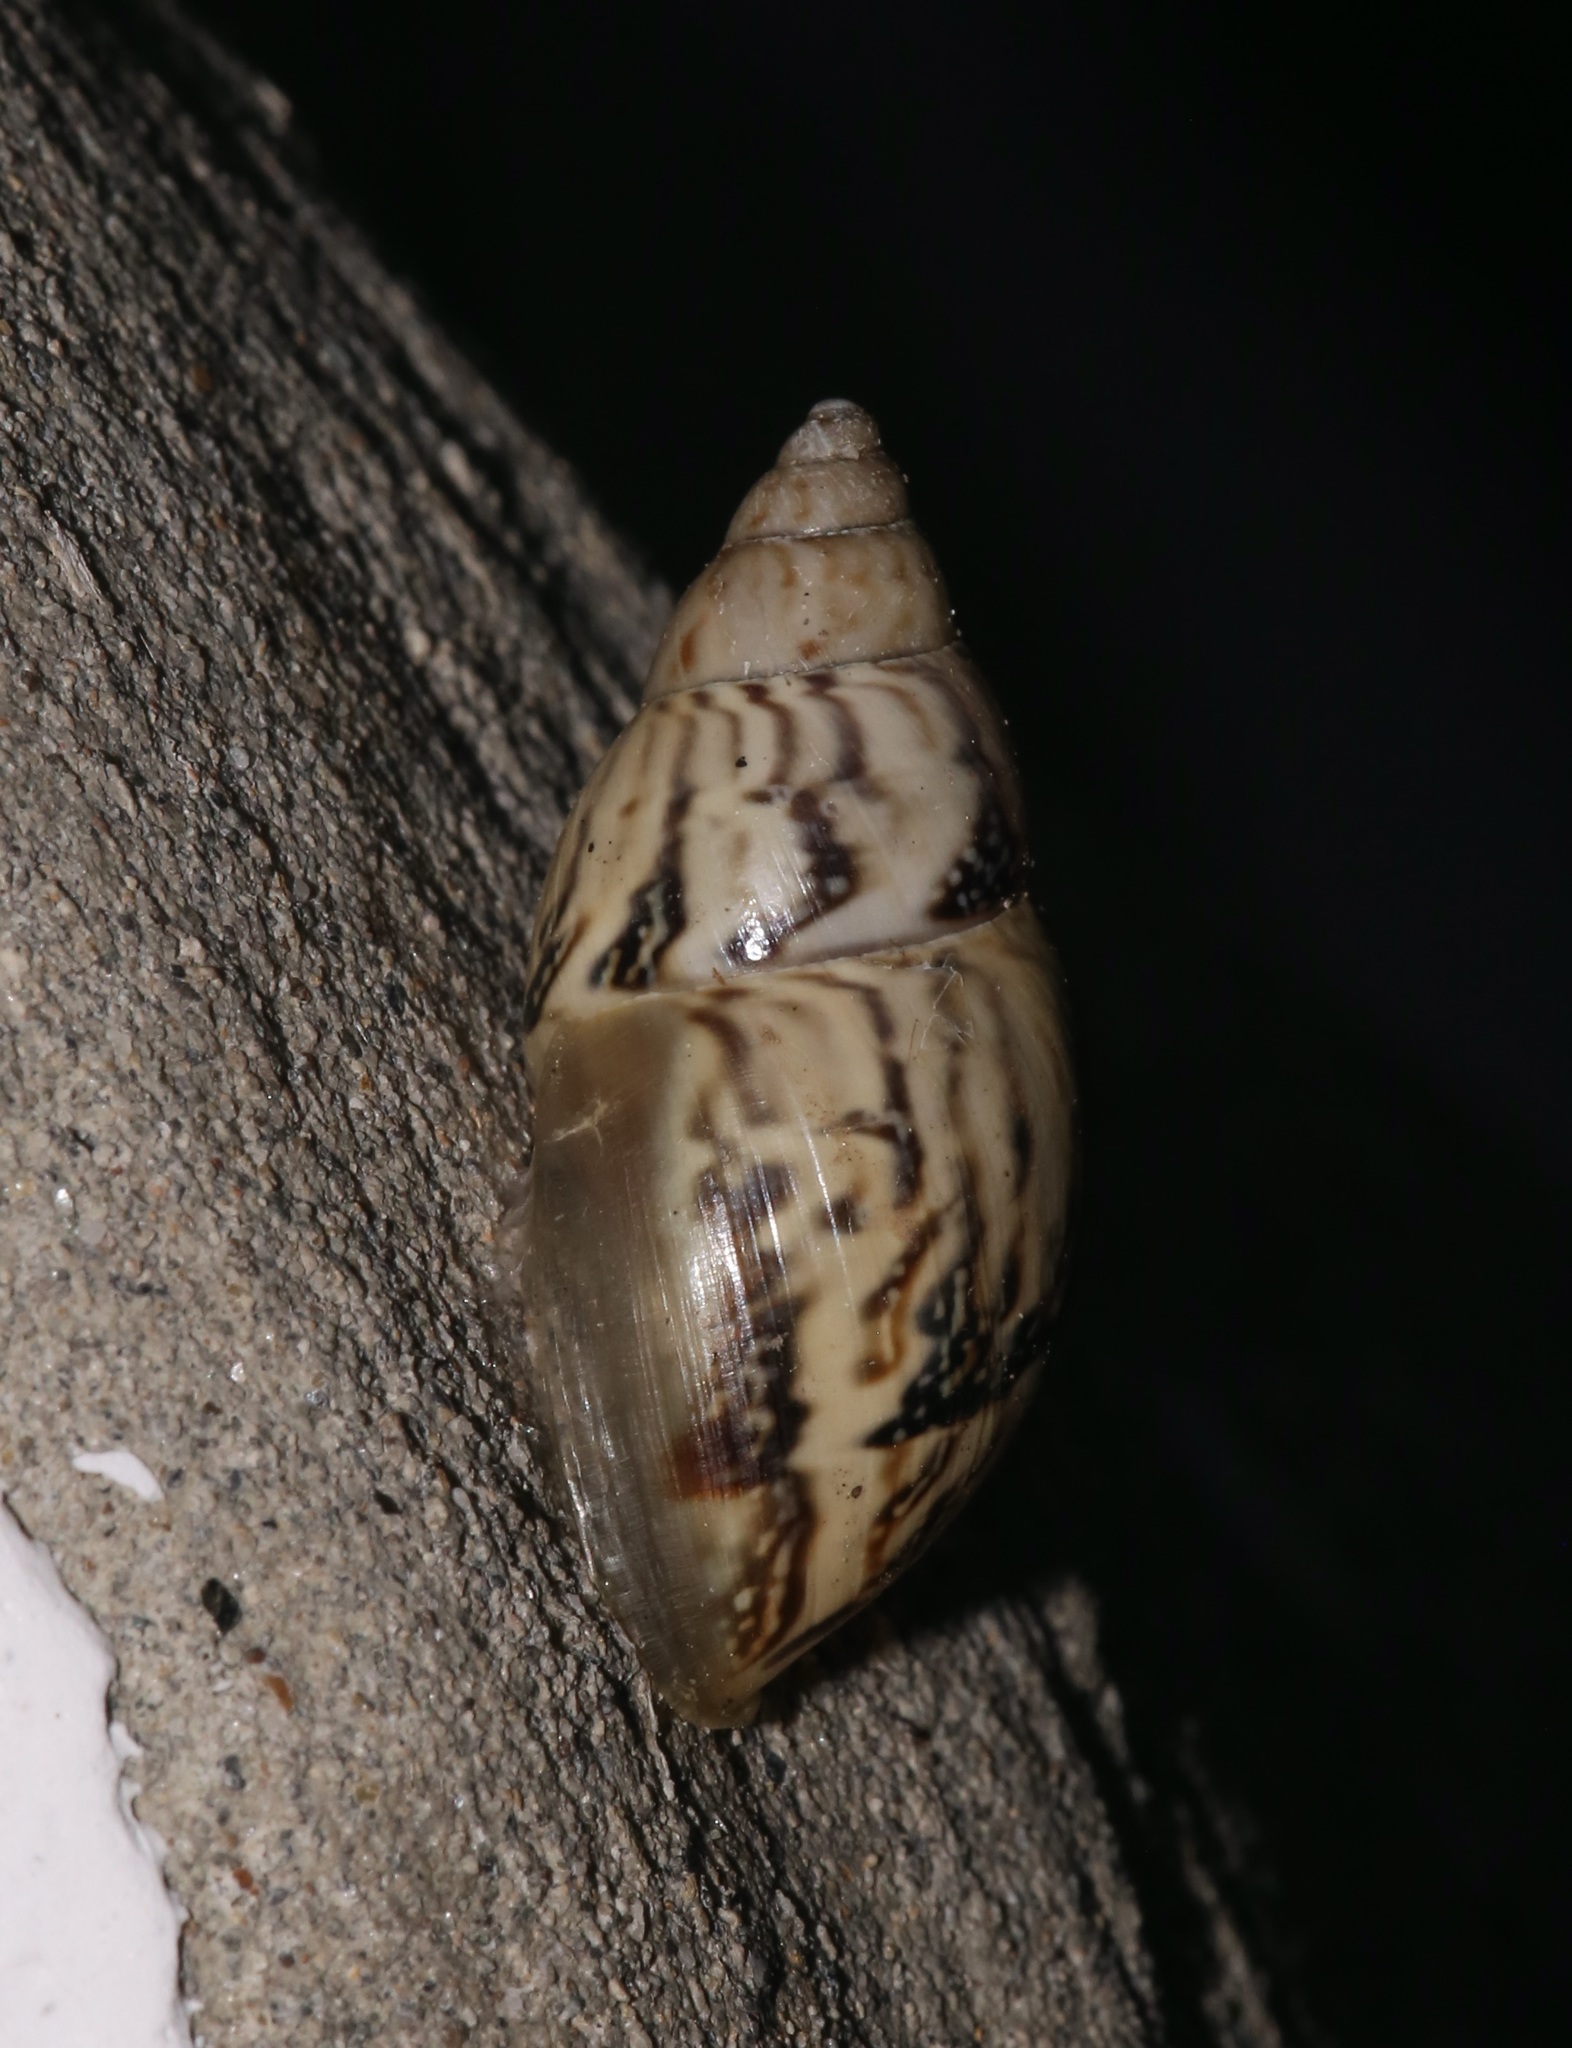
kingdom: Animalia
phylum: Mollusca
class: Gastropoda
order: Stylommatophora
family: Bulimulidae
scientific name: Bulimulidae
